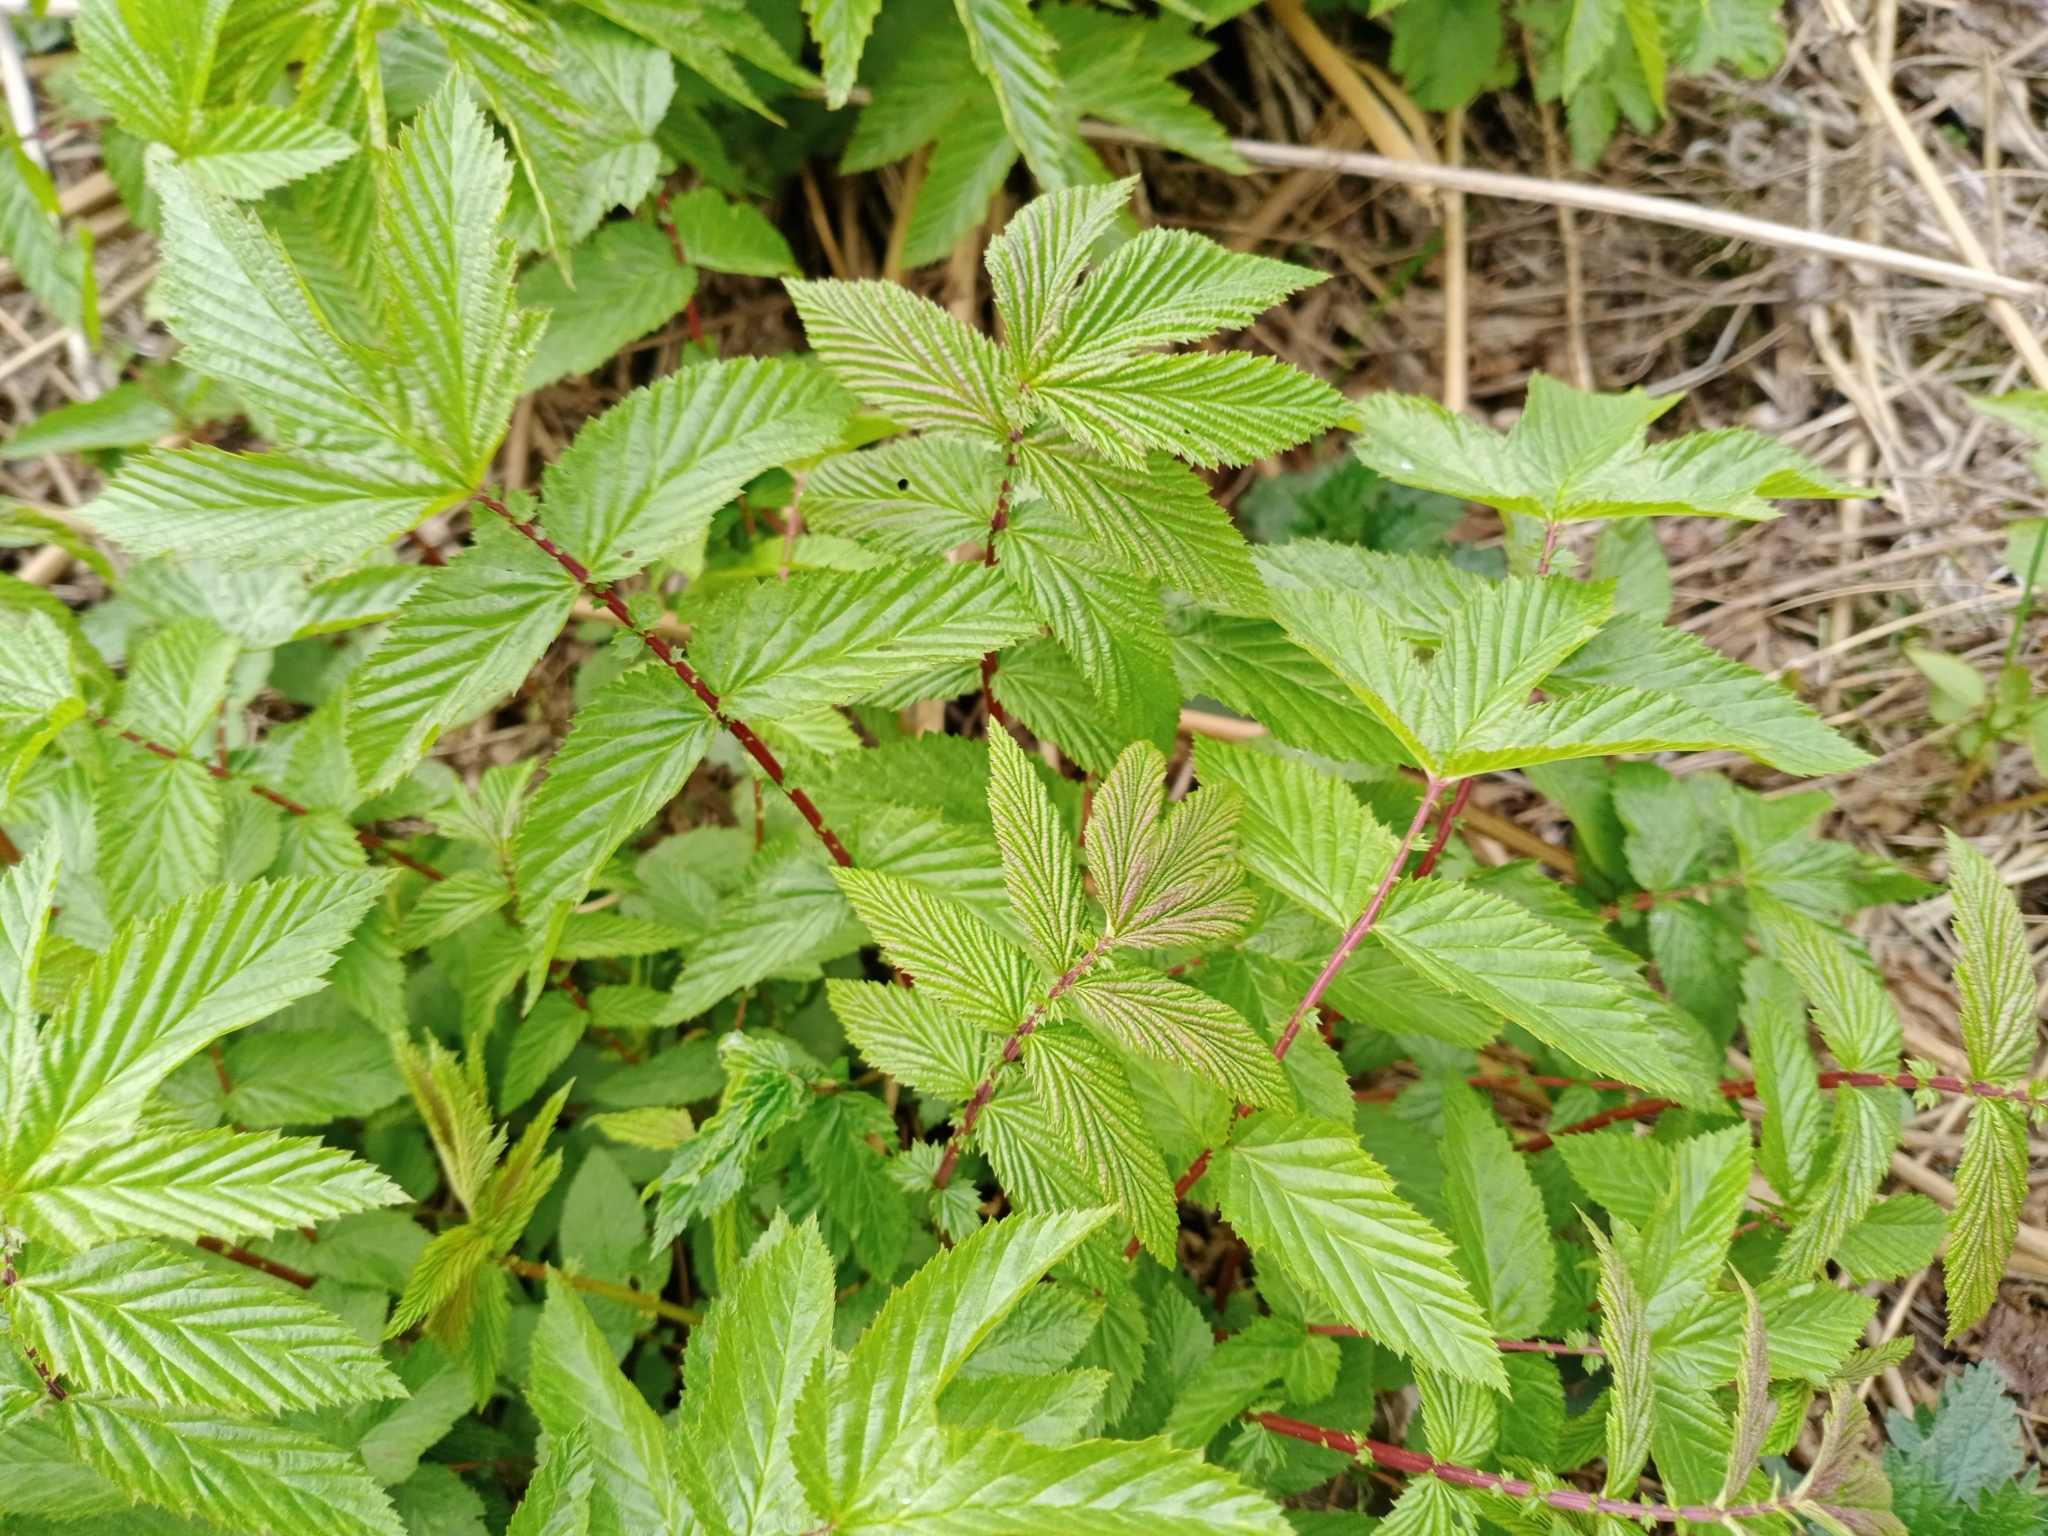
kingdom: Plantae
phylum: Tracheophyta
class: Magnoliopsida
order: Rosales
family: Rosaceae
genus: Filipendula
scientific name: Filipendula ulmaria
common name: Meadowsweet
